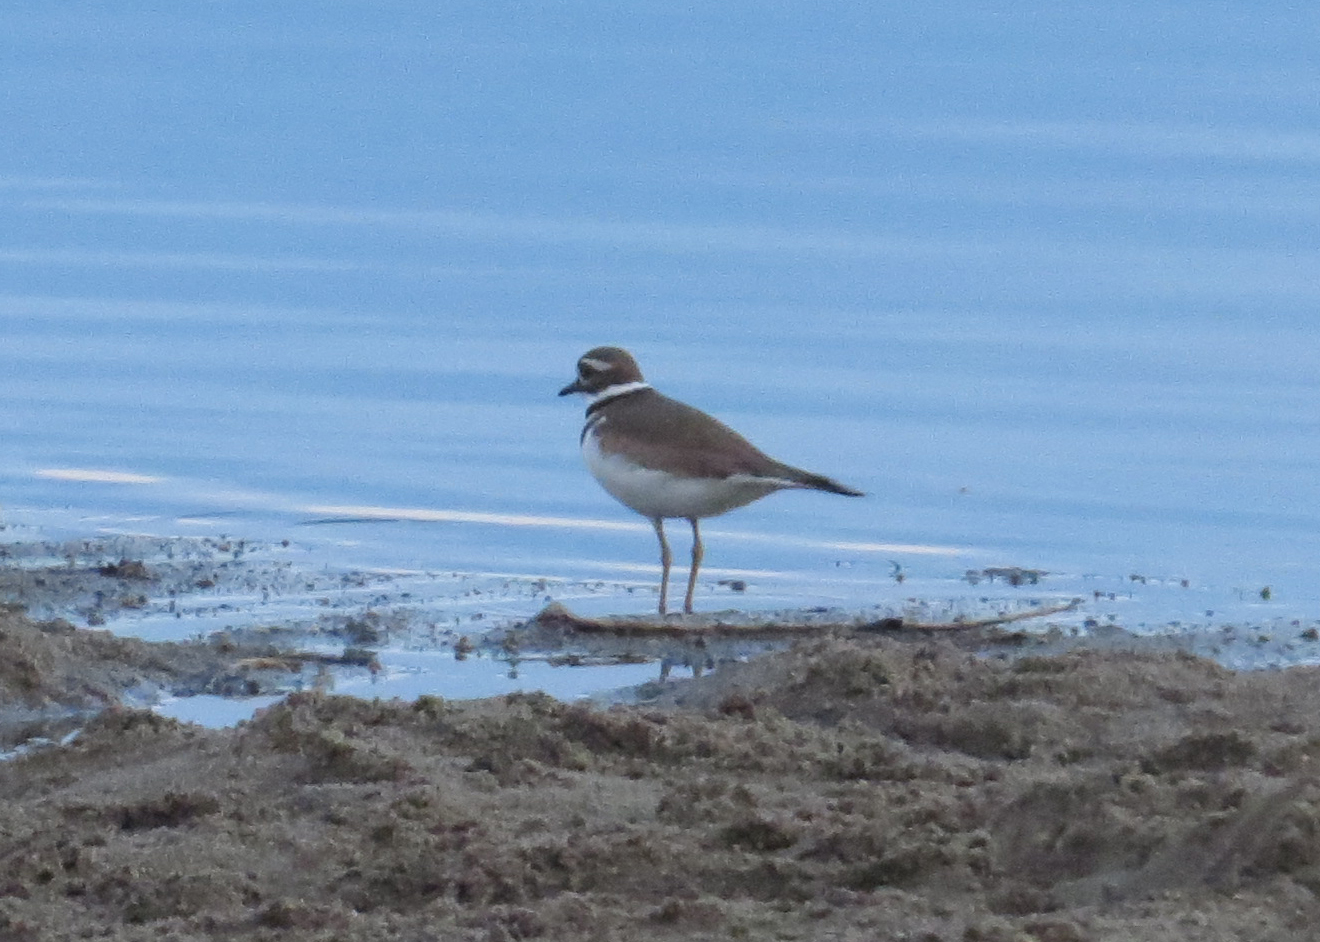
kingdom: Animalia
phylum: Chordata
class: Aves
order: Charadriiformes
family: Charadriidae
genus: Charadrius
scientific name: Charadrius vociferus
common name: Killdeer
